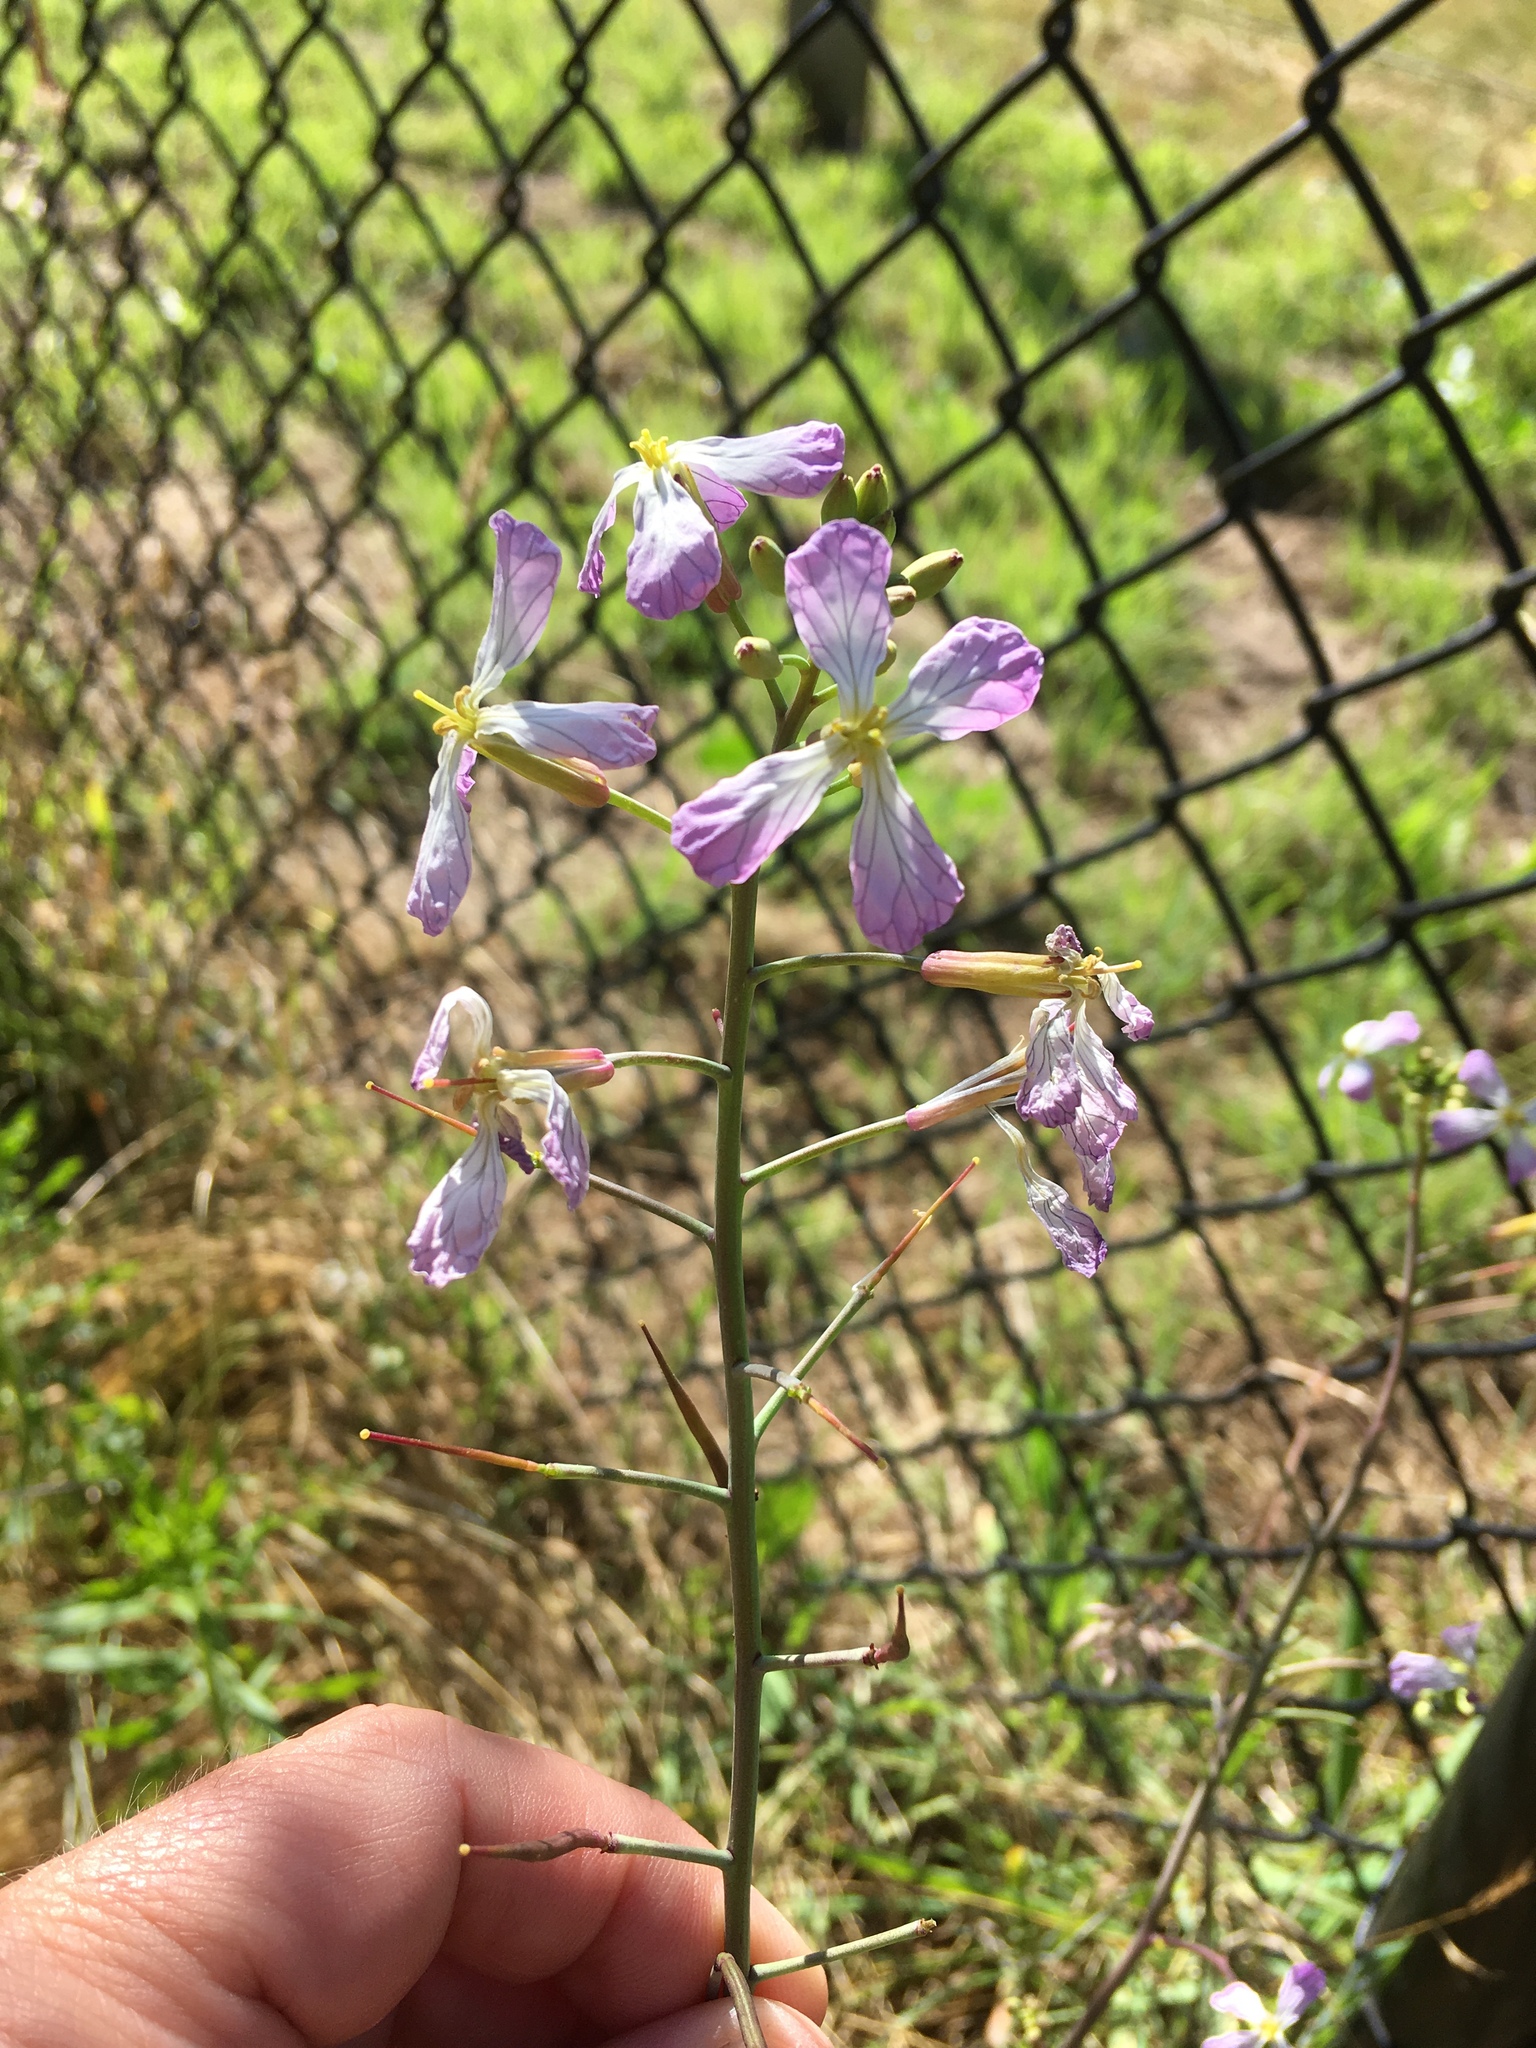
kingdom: Plantae
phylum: Tracheophyta
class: Magnoliopsida
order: Brassicales
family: Brassicaceae
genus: Raphanus
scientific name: Raphanus sativus
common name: Cultivated radish
